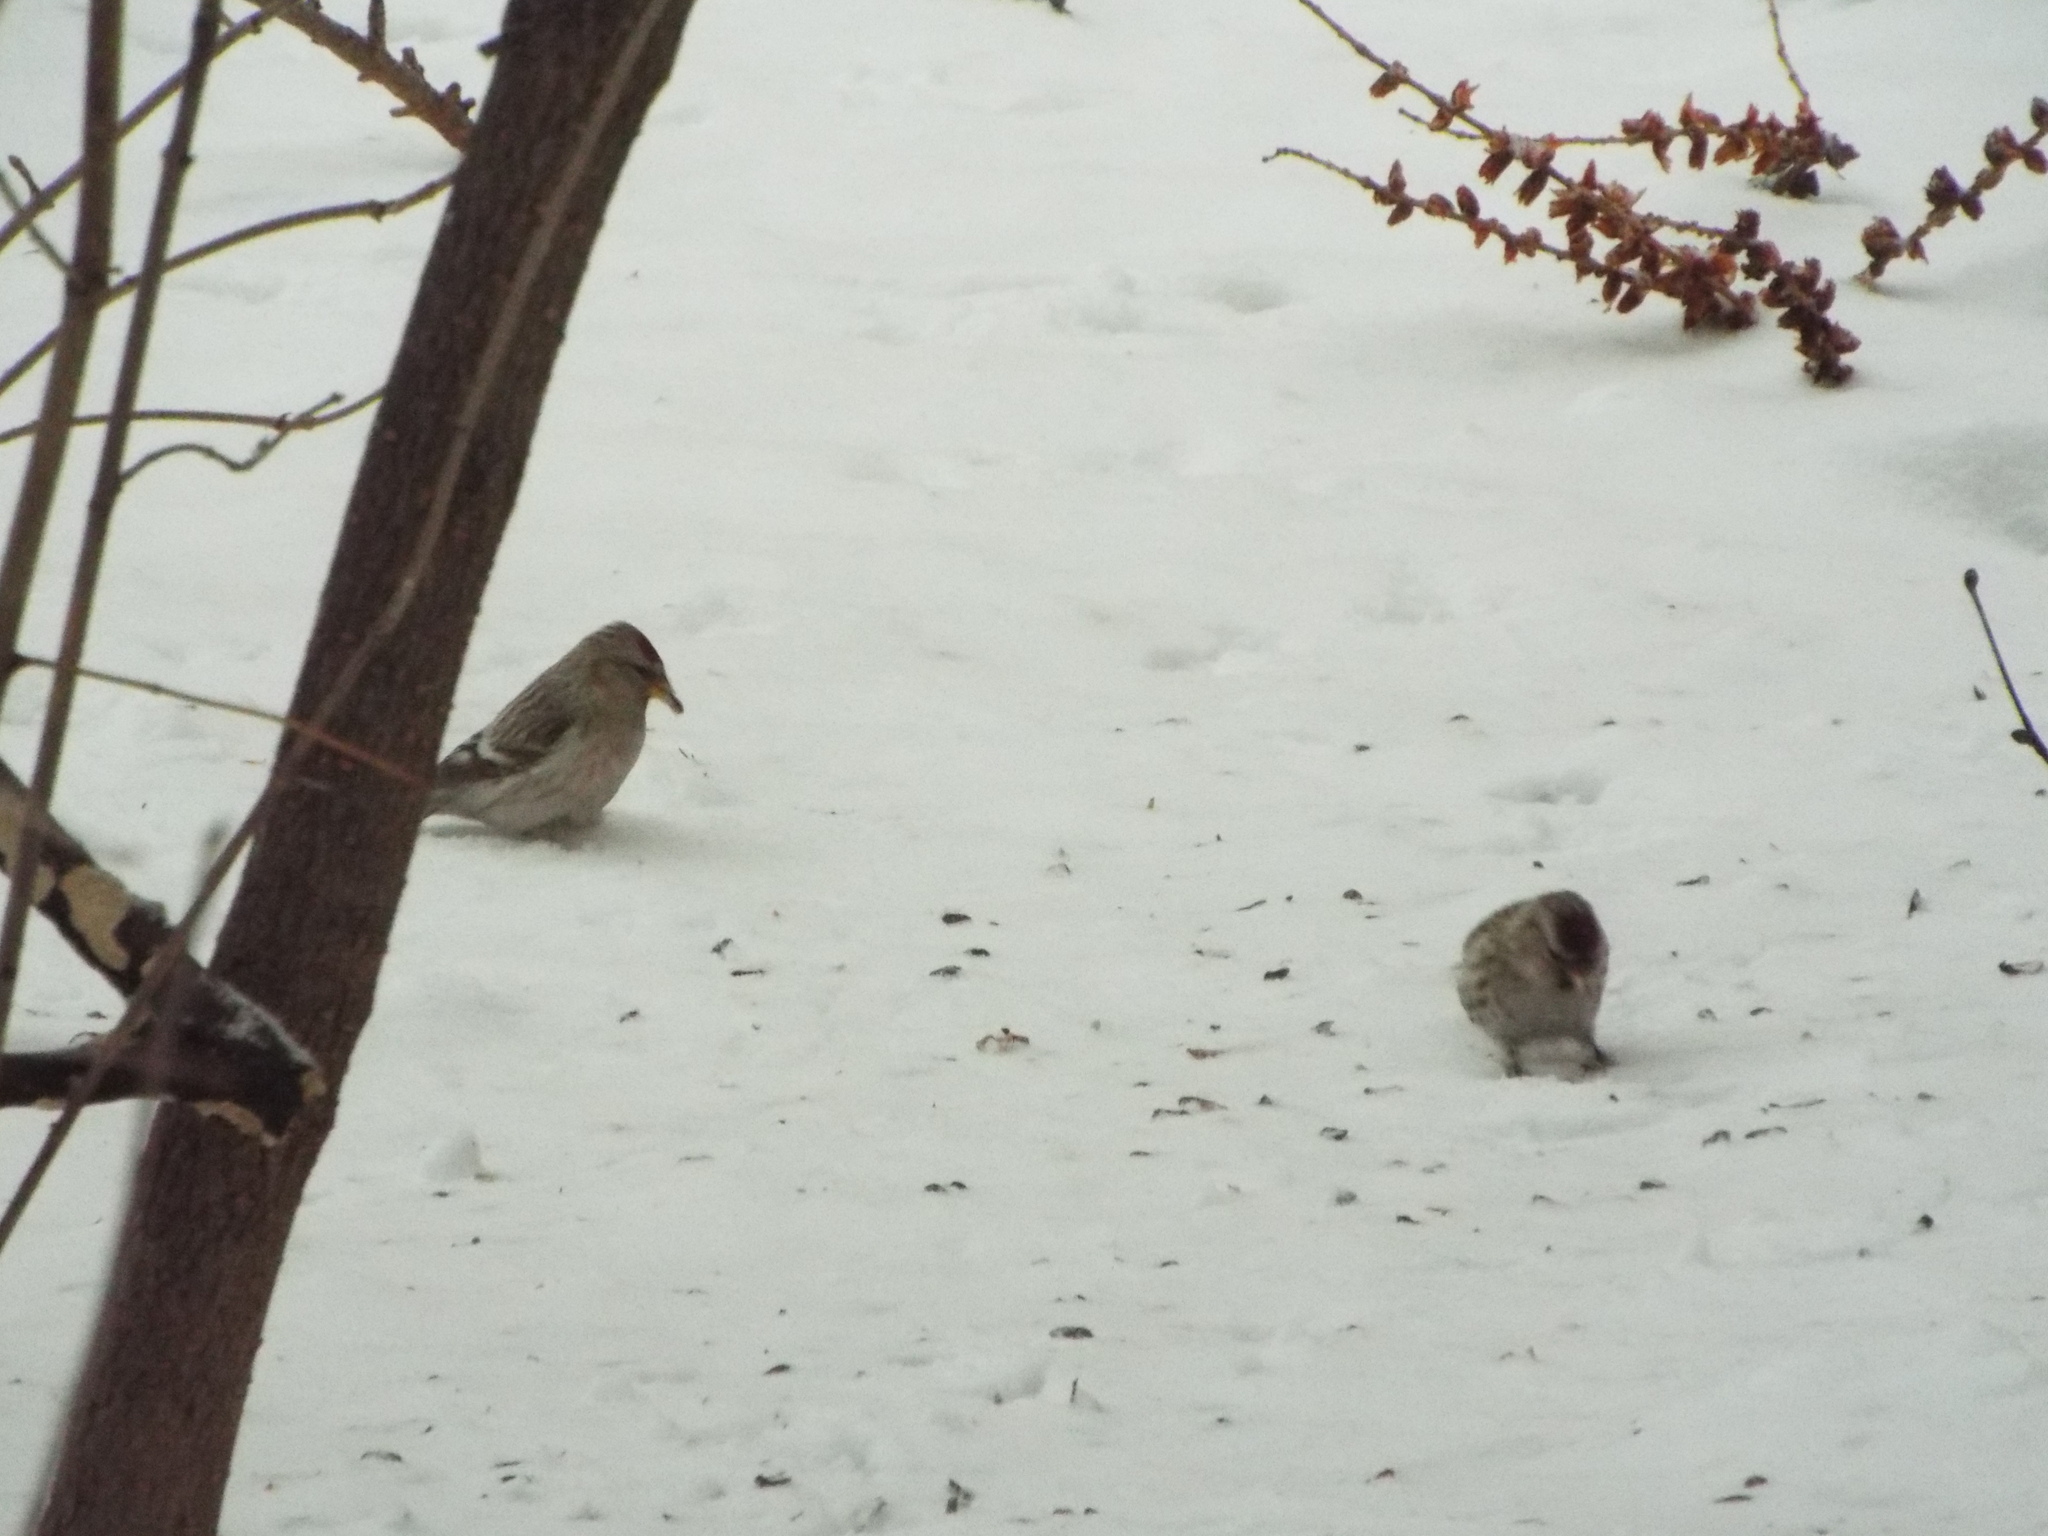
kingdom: Animalia
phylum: Chordata
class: Aves
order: Passeriformes
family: Fringillidae
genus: Acanthis
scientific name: Acanthis flammea
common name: Common redpoll
